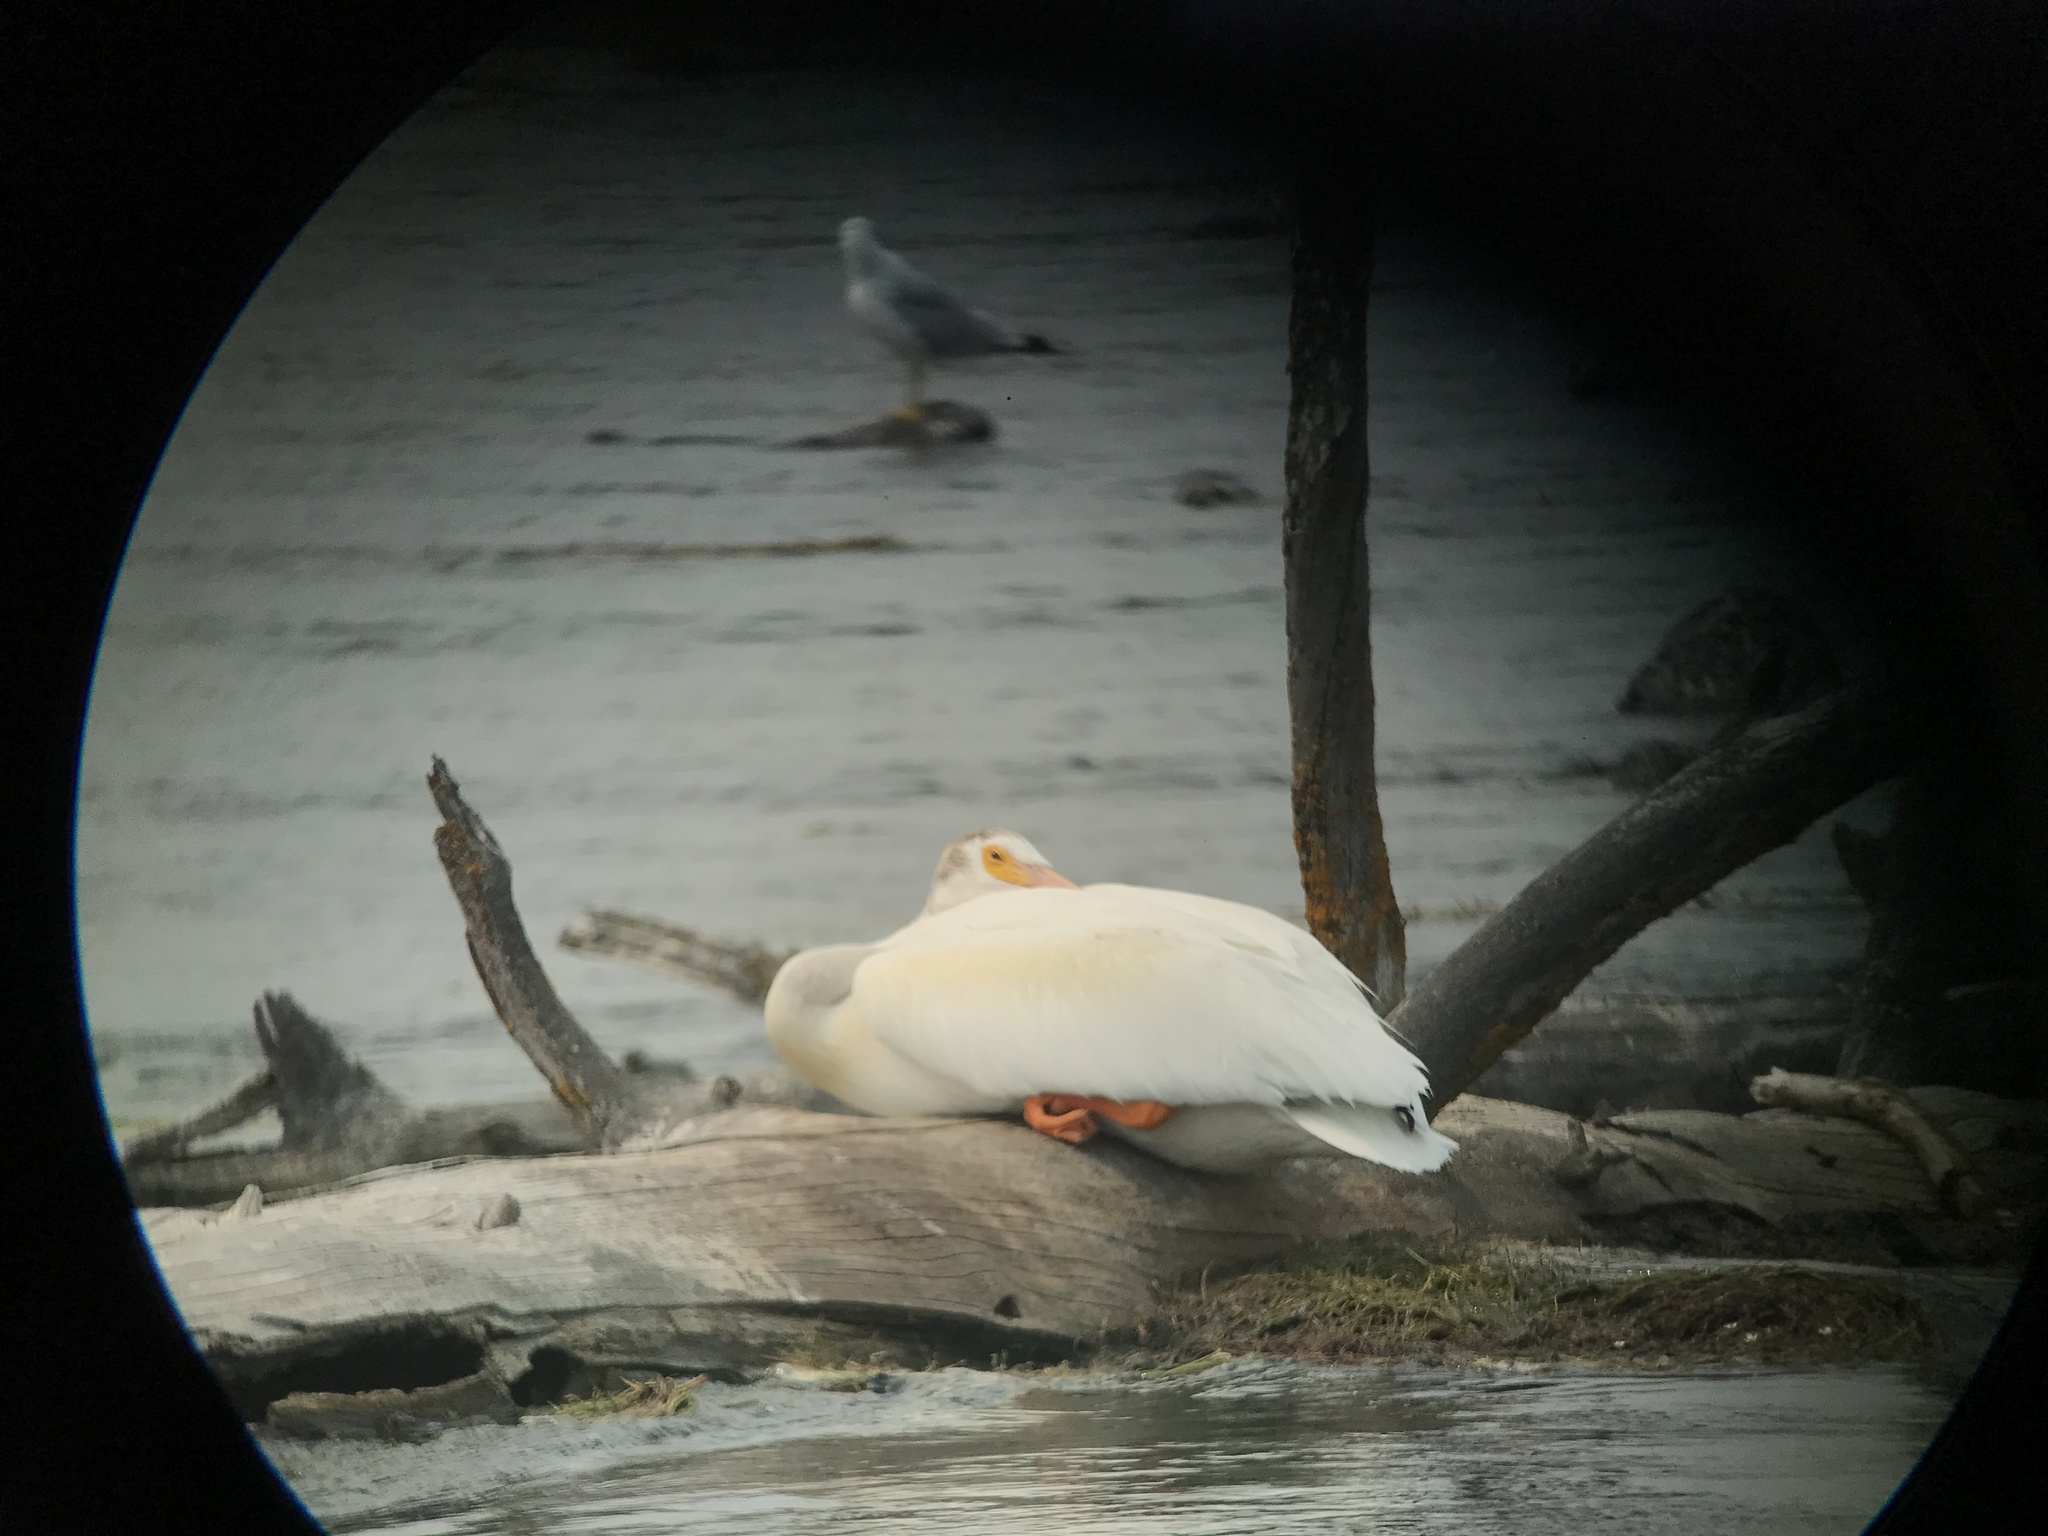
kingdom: Animalia
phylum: Chordata
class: Aves
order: Pelecaniformes
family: Pelecanidae
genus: Pelecanus
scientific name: Pelecanus erythrorhynchos
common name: American white pelican
